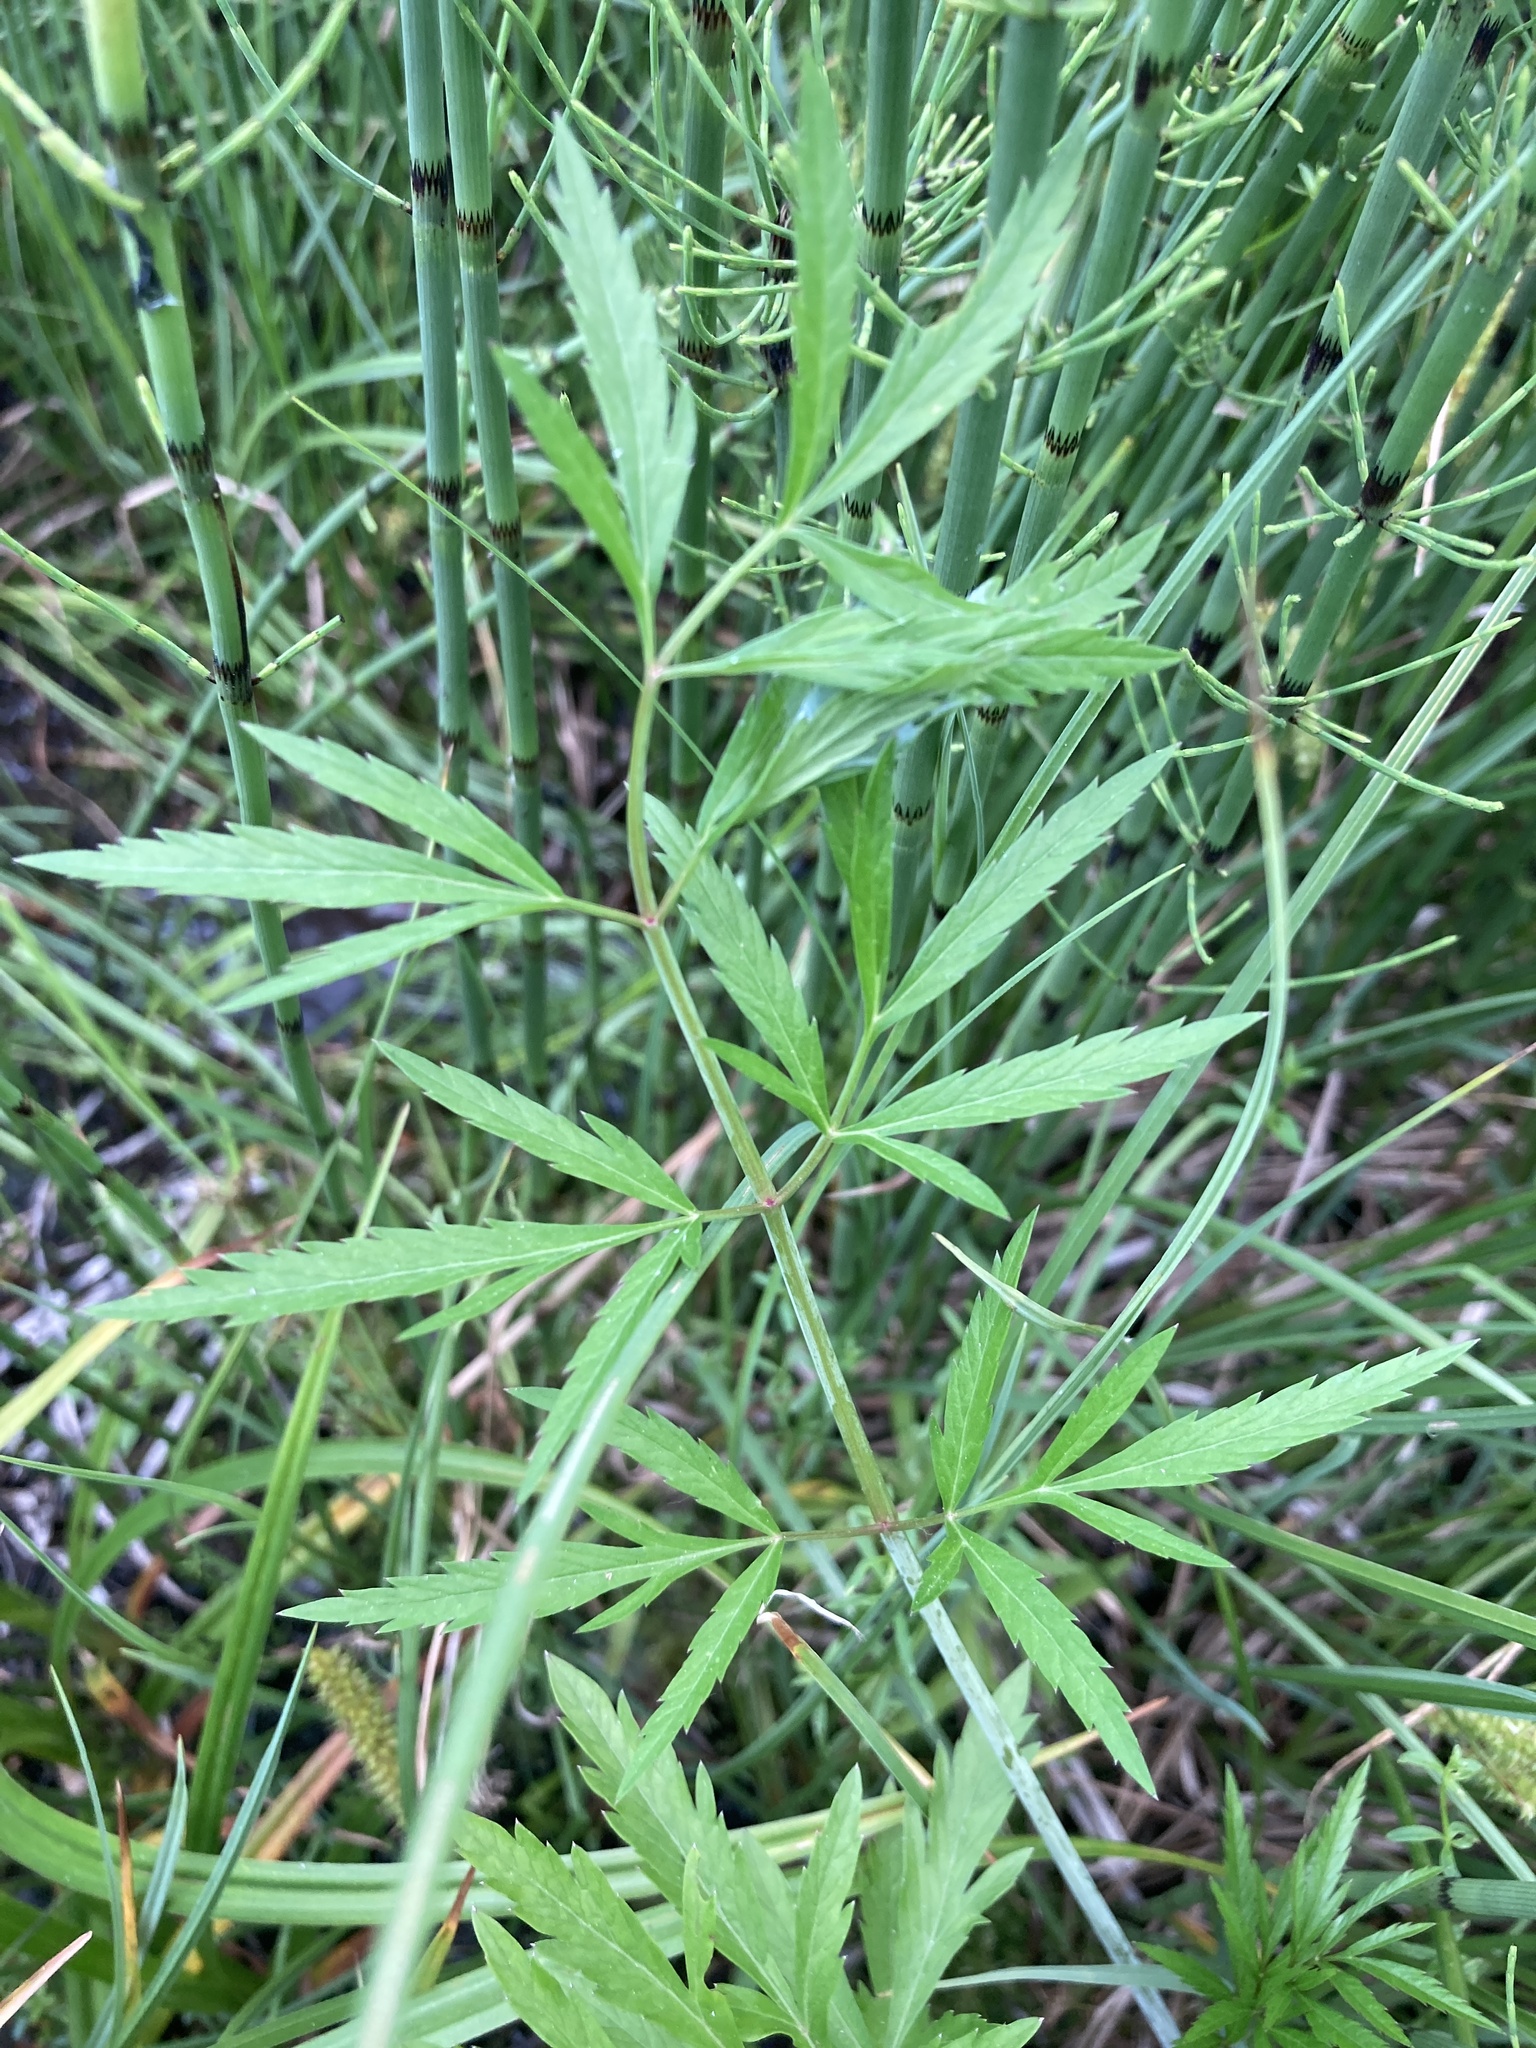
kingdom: Plantae
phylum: Tracheophyta
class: Magnoliopsida
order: Apiales
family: Apiaceae
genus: Cicuta
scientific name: Cicuta virosa
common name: Cowbane
